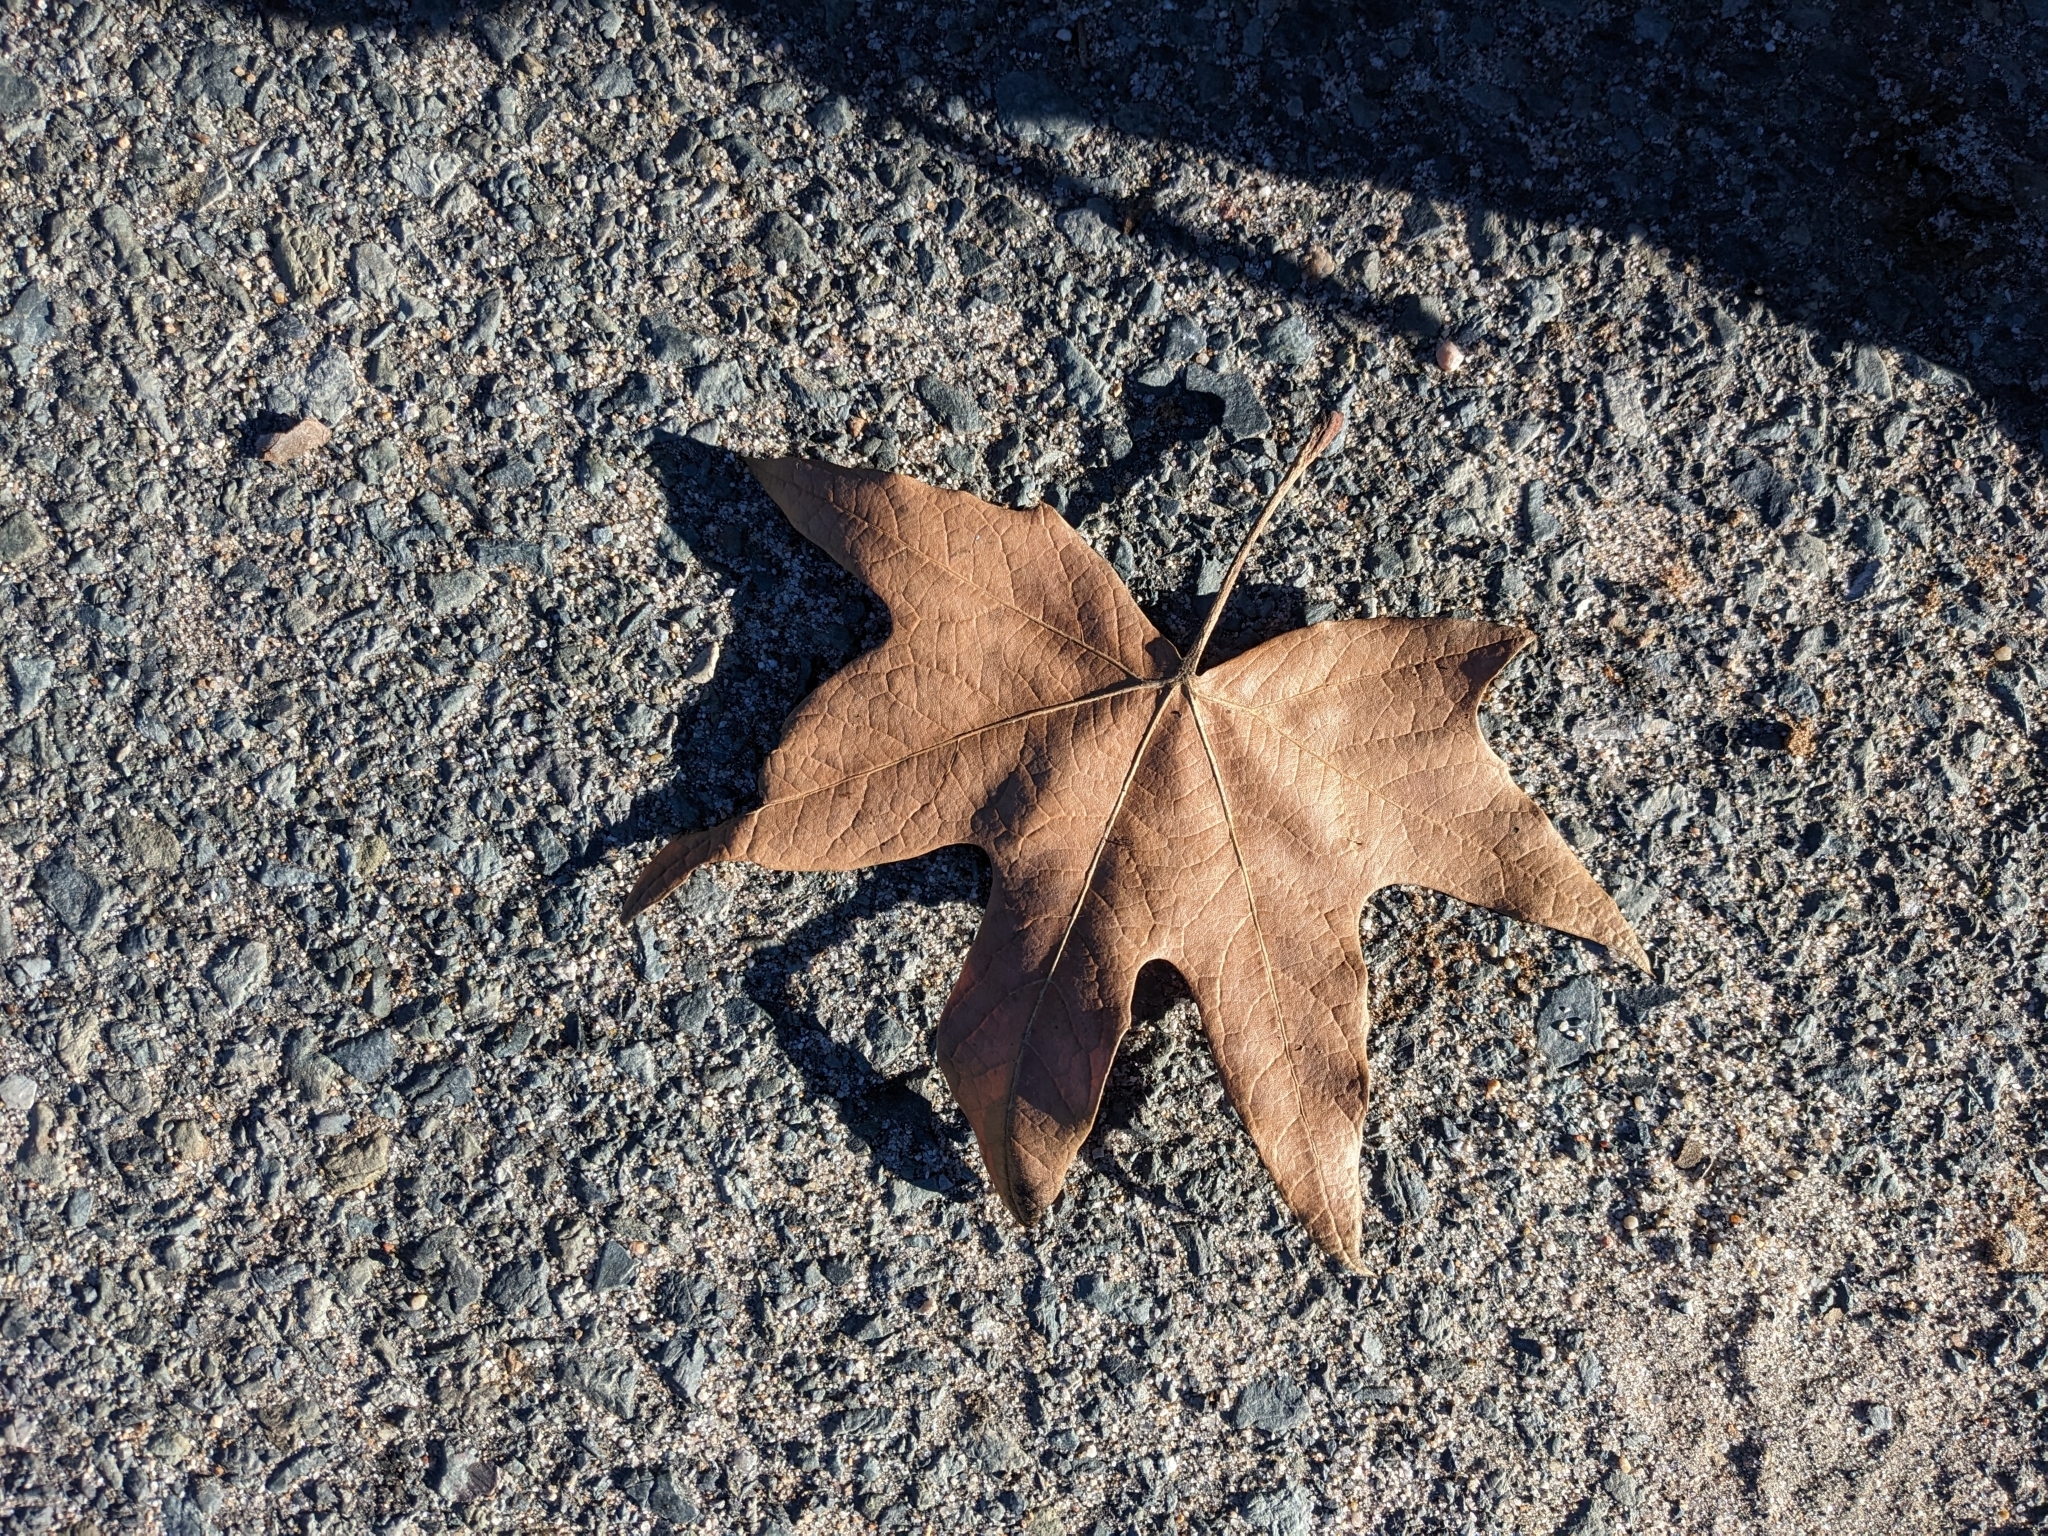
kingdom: Plantae
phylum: Tracheophyta
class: Magnoliopsida
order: Proteales
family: Platanaceae
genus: Platanus
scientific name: Platanus racemosa
